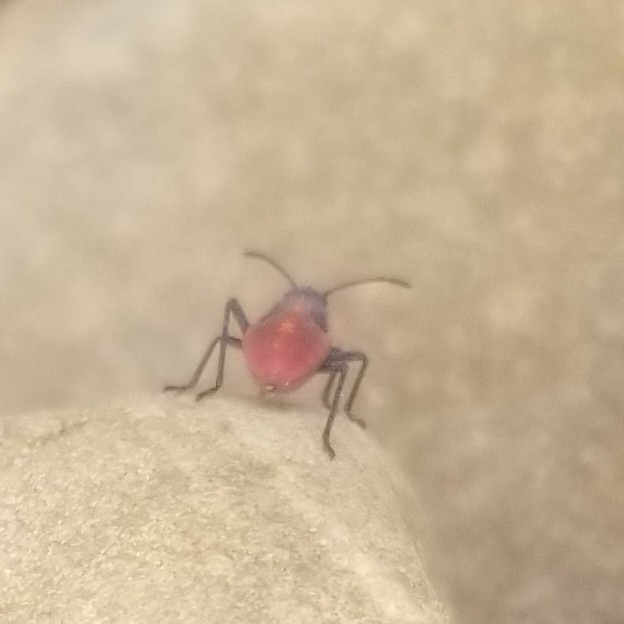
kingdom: Animalia
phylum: Arthropoda
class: Insecta
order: Hemiptera
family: Rhopalidae
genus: Boisea
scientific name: Boisea trivittata
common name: Boxelder bug
